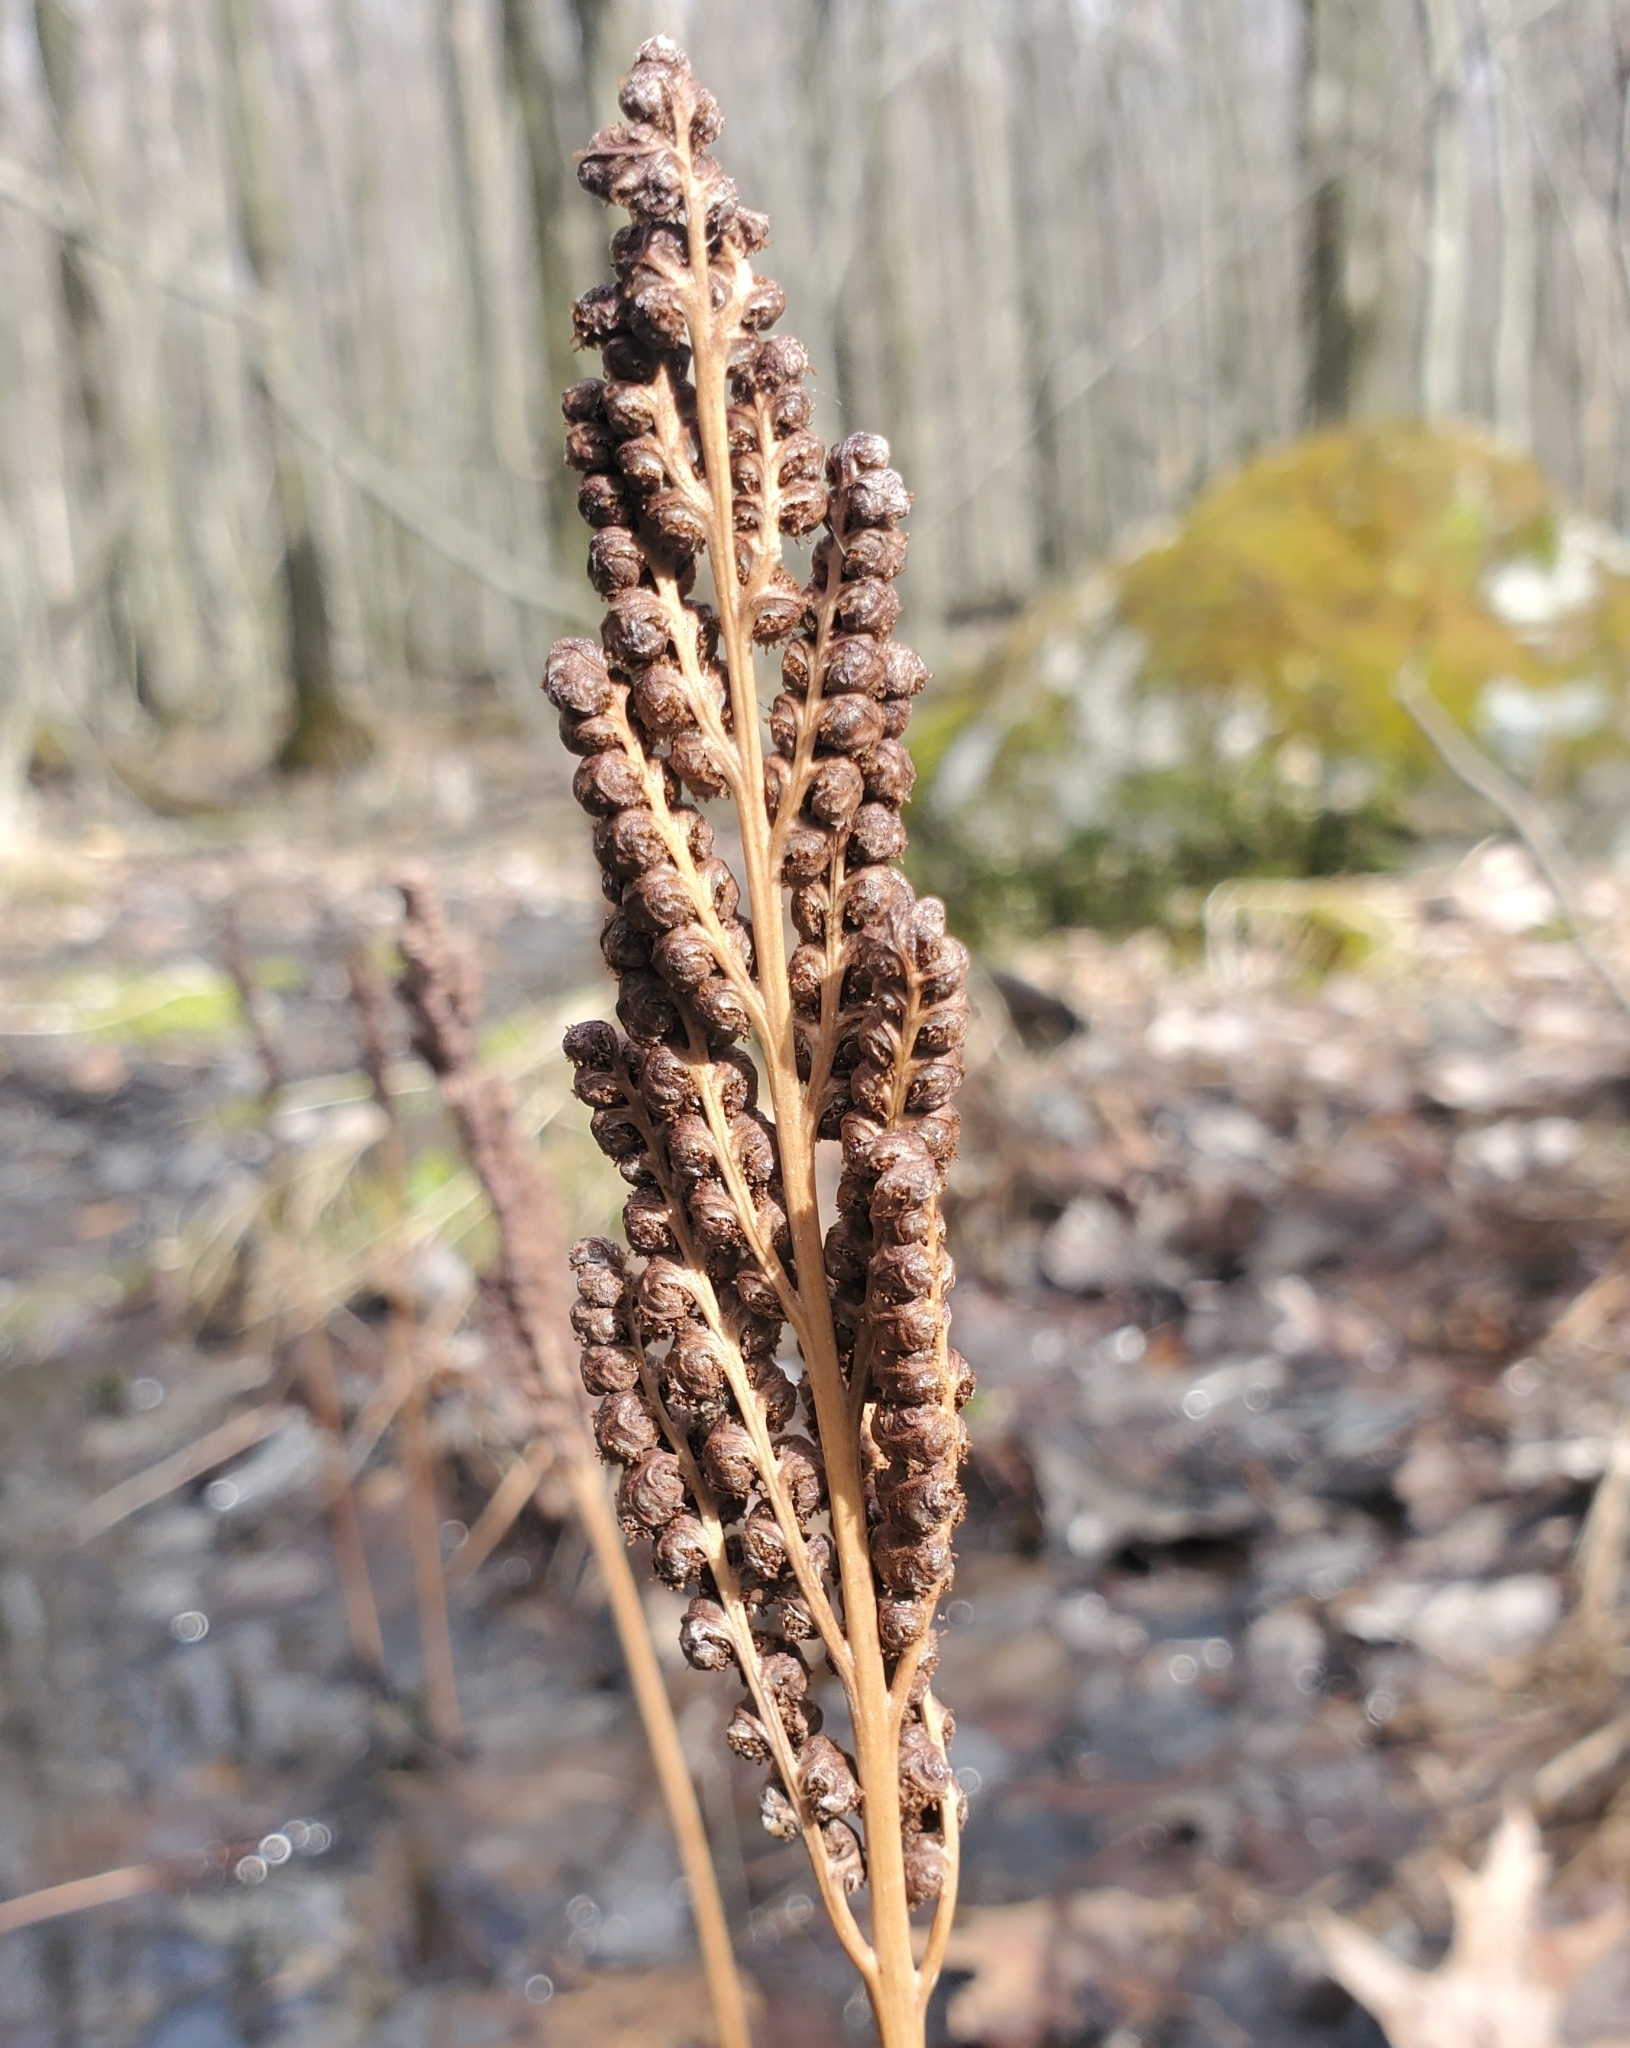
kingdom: Plantae
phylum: Tracheophyta
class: Polypodiopsida
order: Polypodiales
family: Onocleaceae
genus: Onoclea
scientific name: Onoclea sensibilis
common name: Sensitive fern
